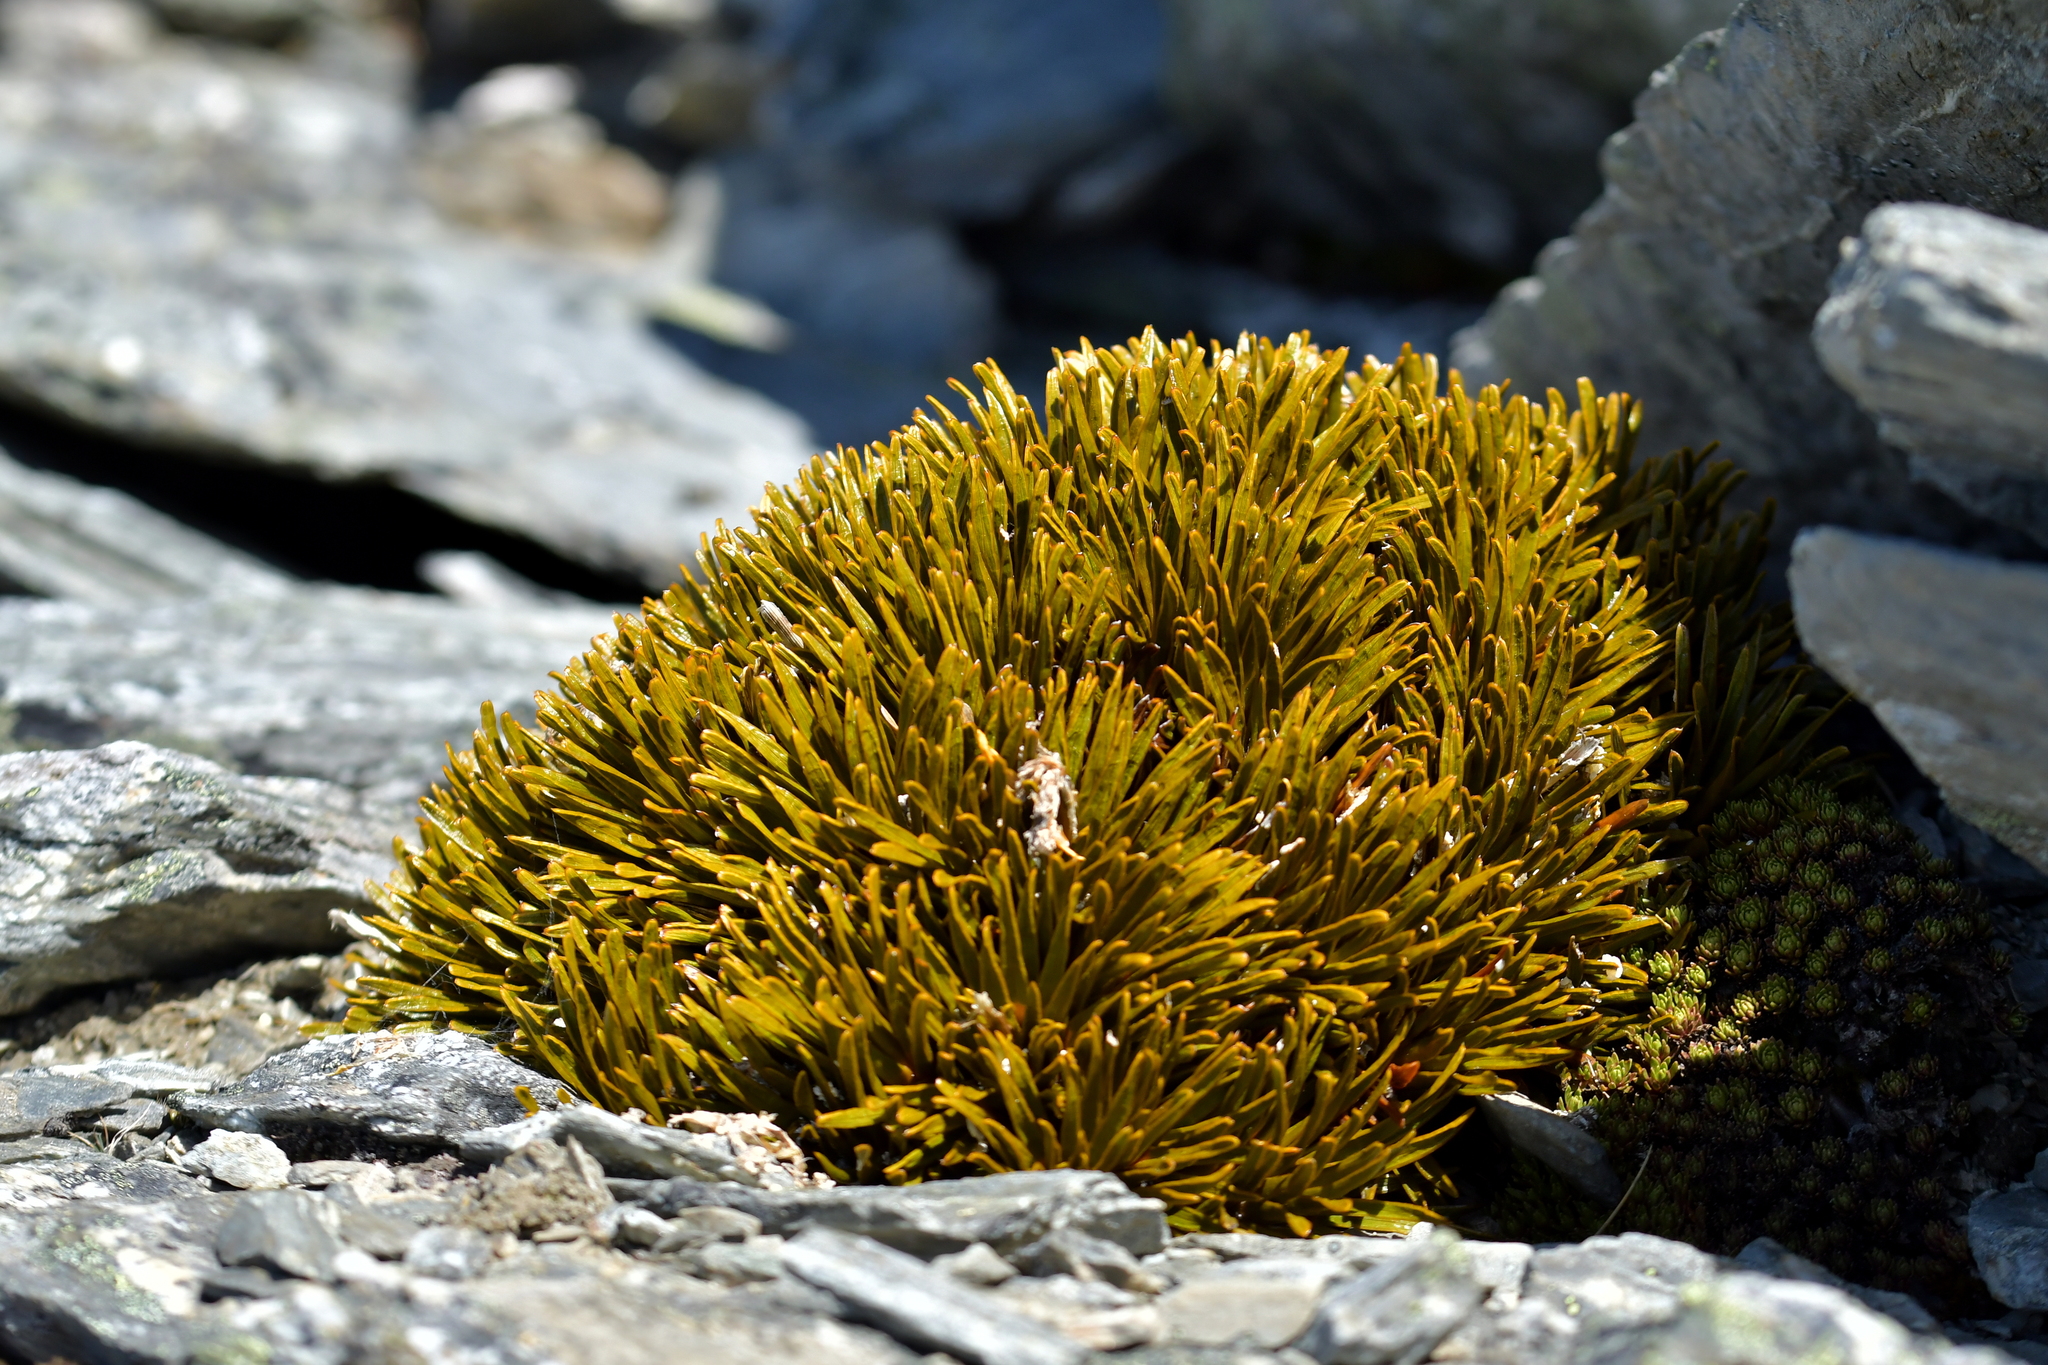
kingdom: Plantae
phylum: Tracheophyta
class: Magnoliopsida
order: Apiales
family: Apiaceae
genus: Aciphylla
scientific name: Aciphylla simplex
